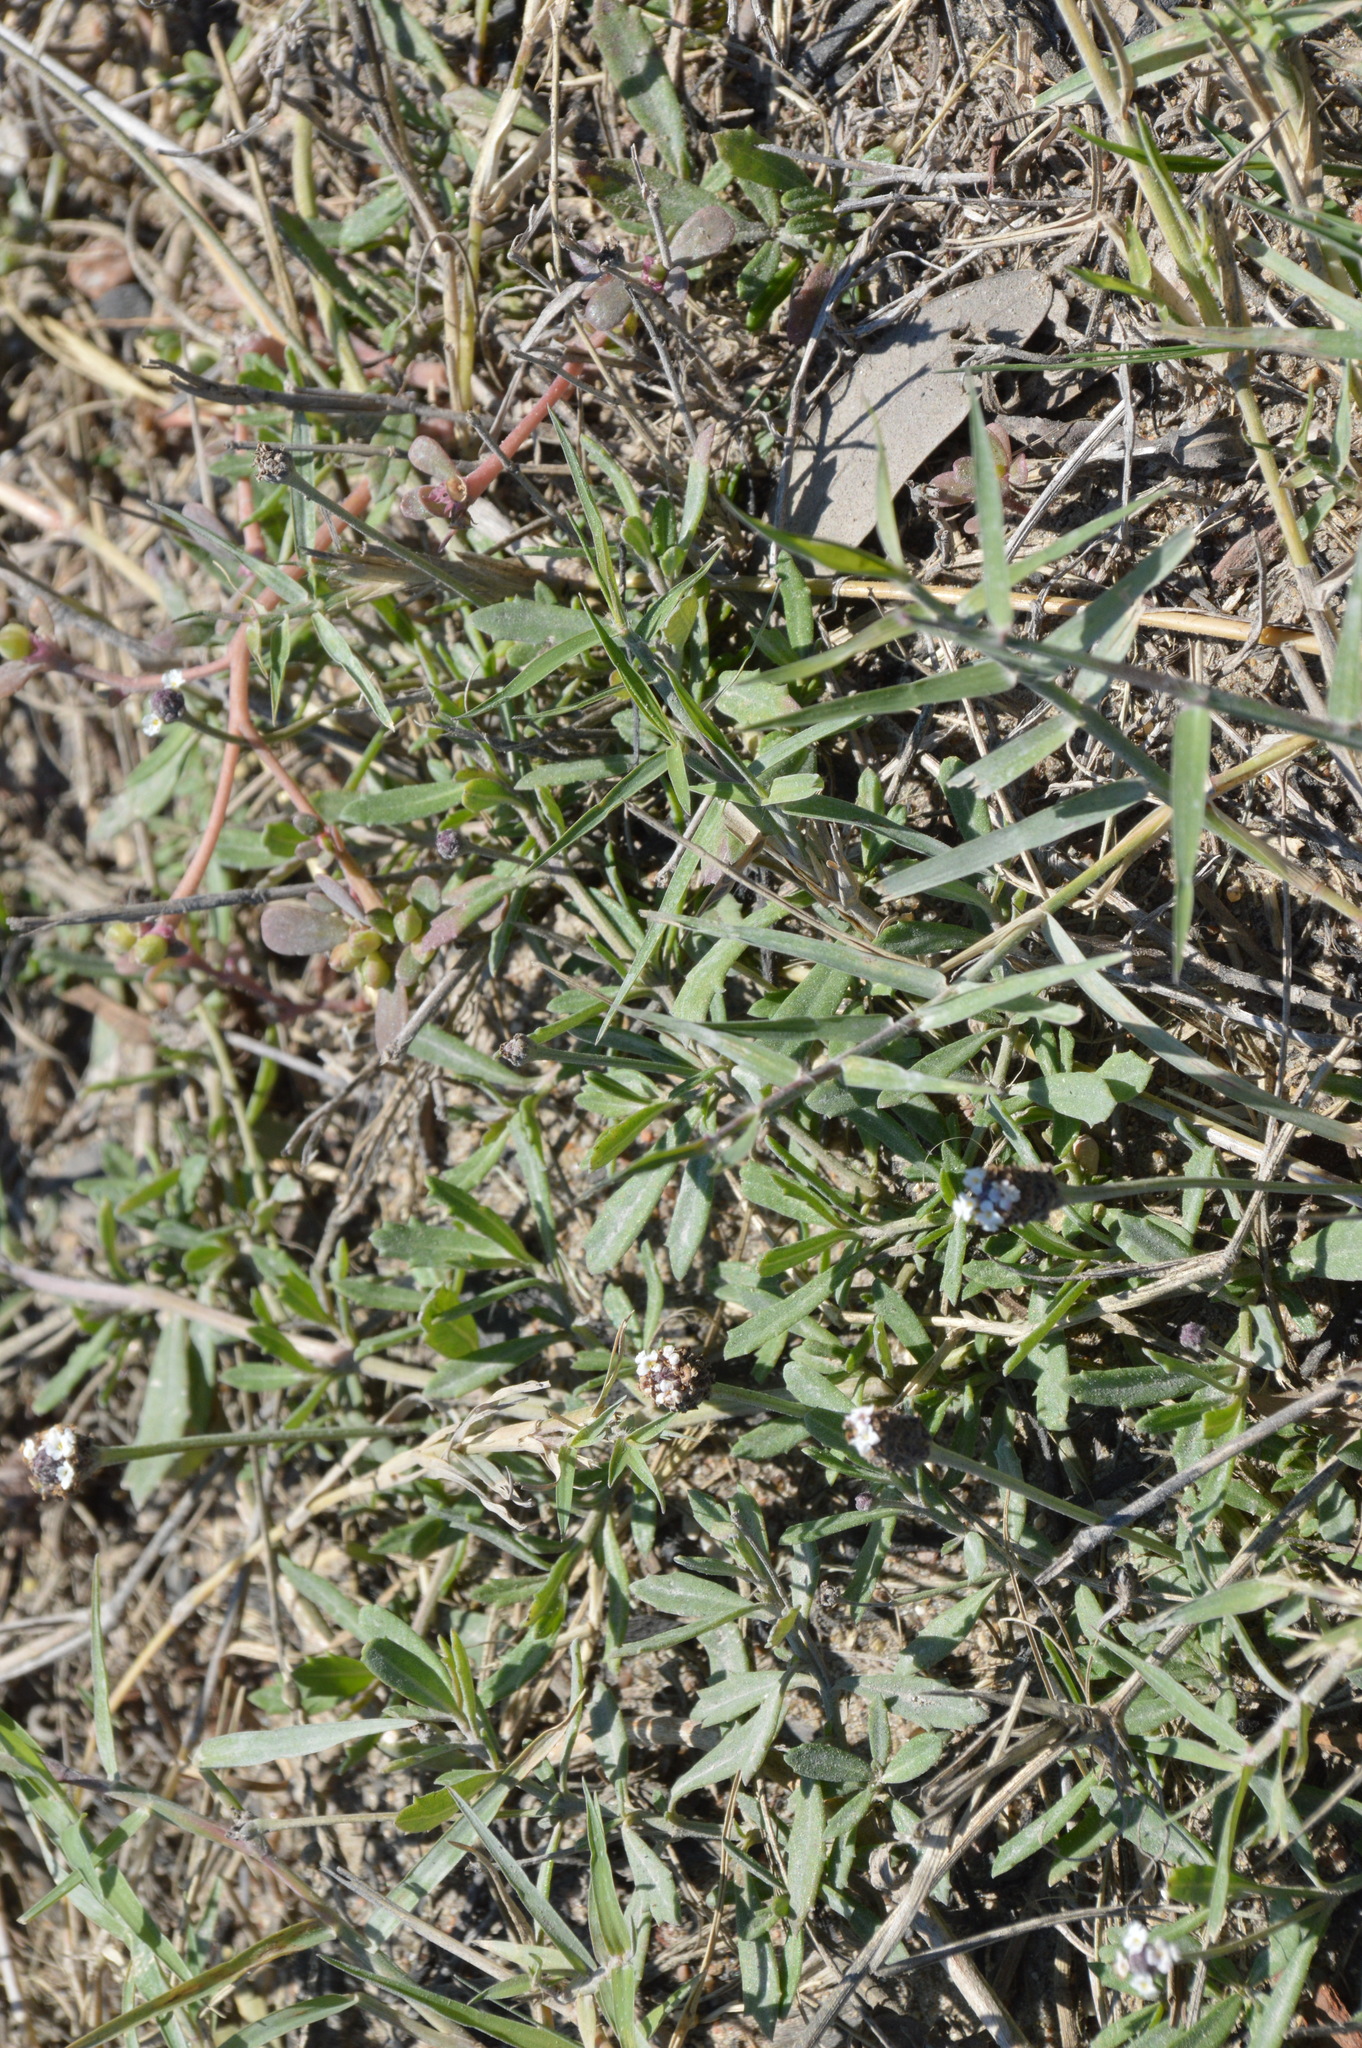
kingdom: Plantae
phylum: Tracheophyta
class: Magnoliopsida
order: Lamiales
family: Verbenaceae
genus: Phyla
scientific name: Phyla nodiflora
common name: Frogfruit
